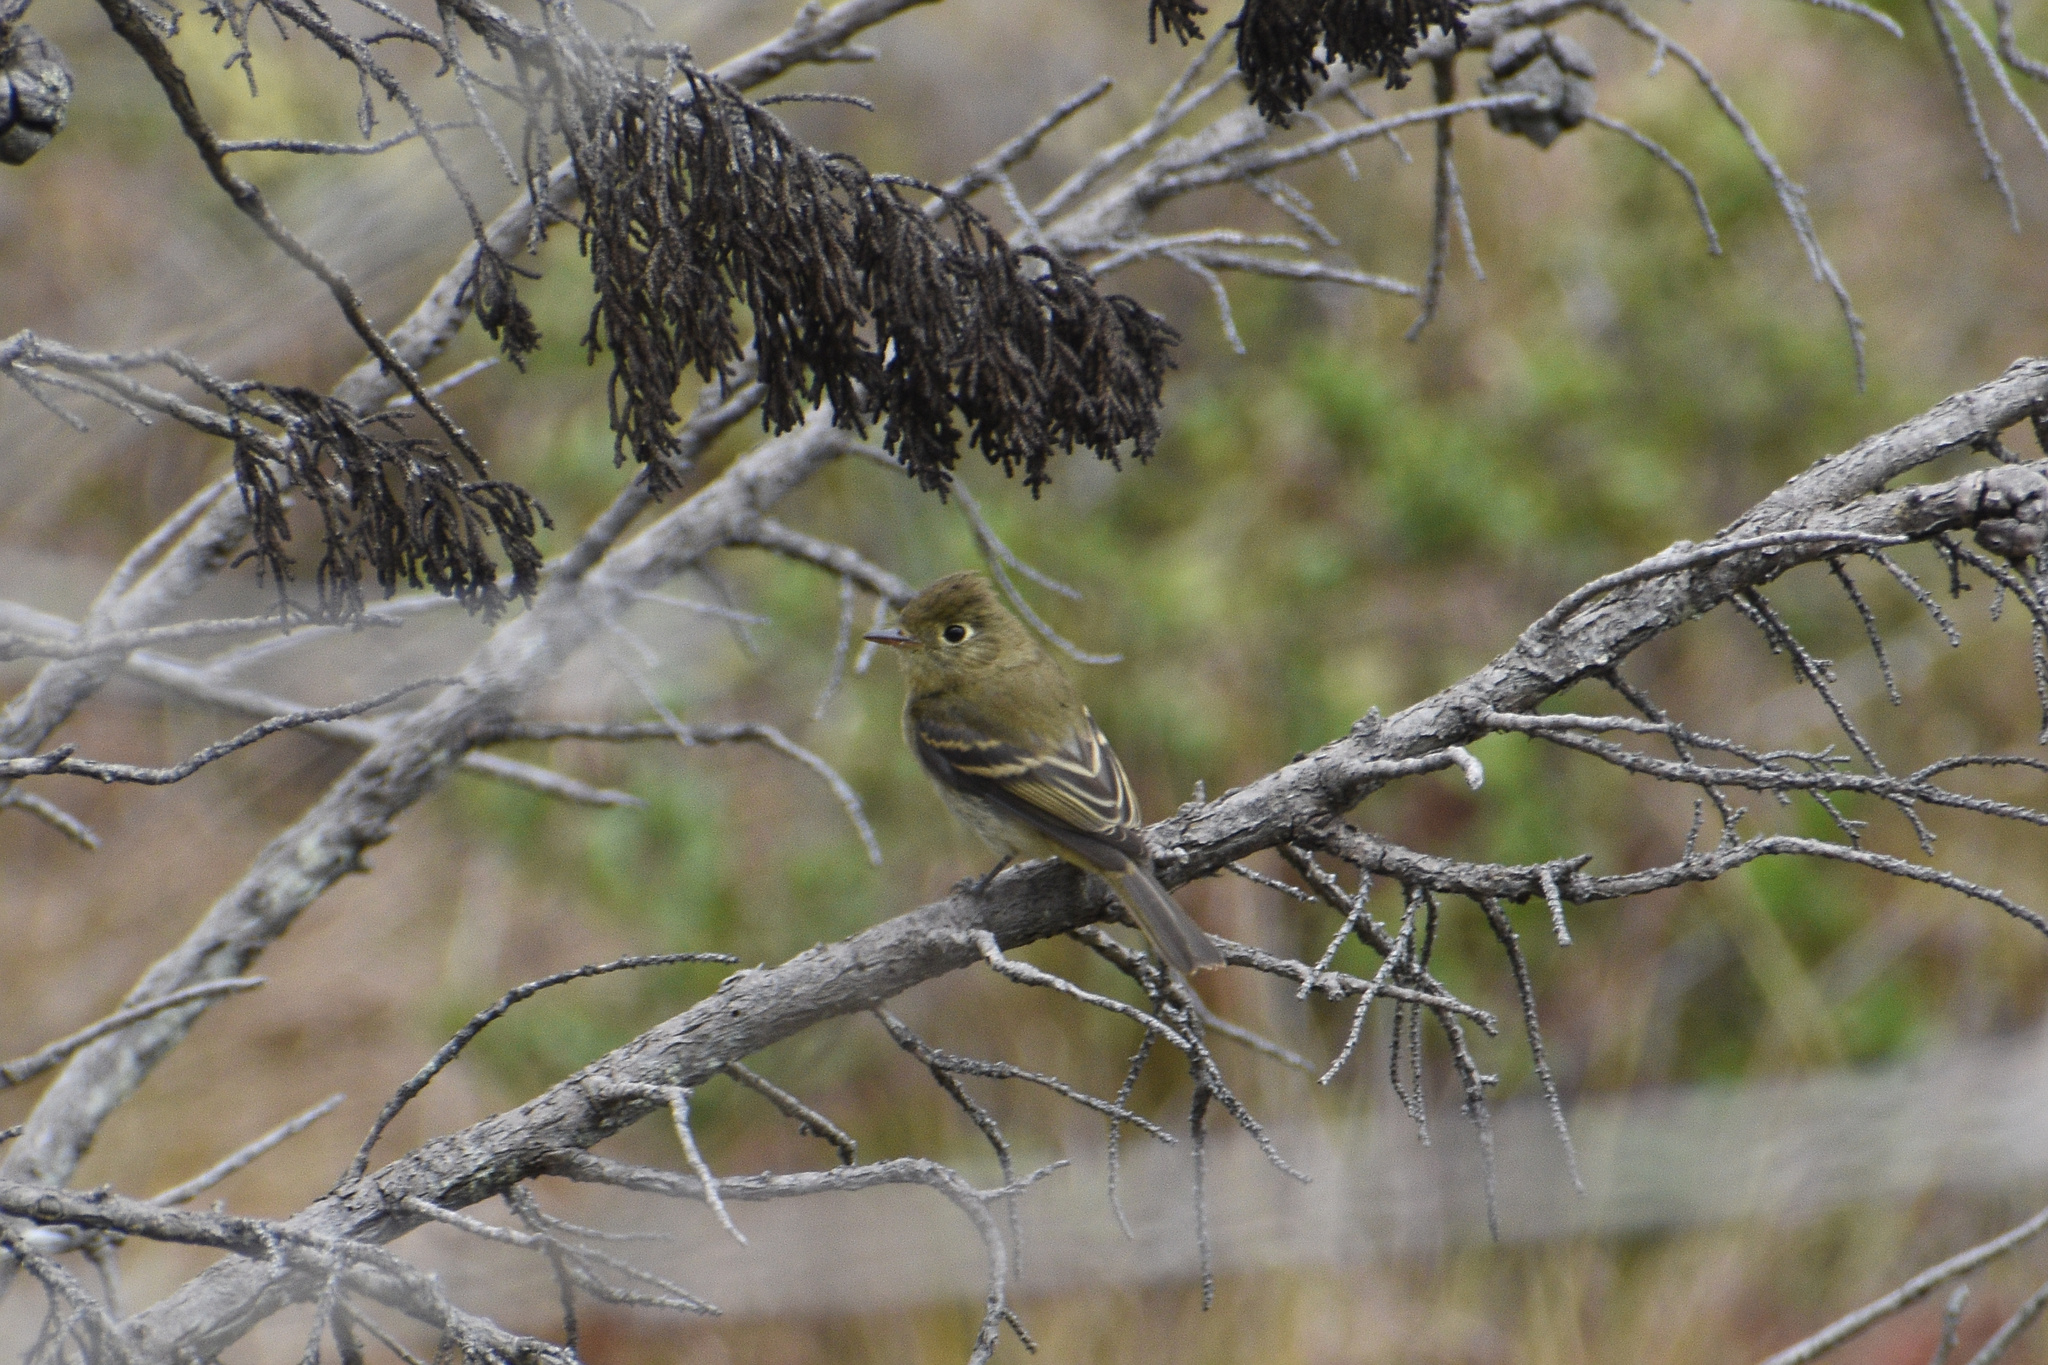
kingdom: Animalia
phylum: Chordata
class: Aves
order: Passeriformes
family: Tyrannidae
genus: Empidonax
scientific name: Empidonax difficilis
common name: Pacific-slope flycatcher
